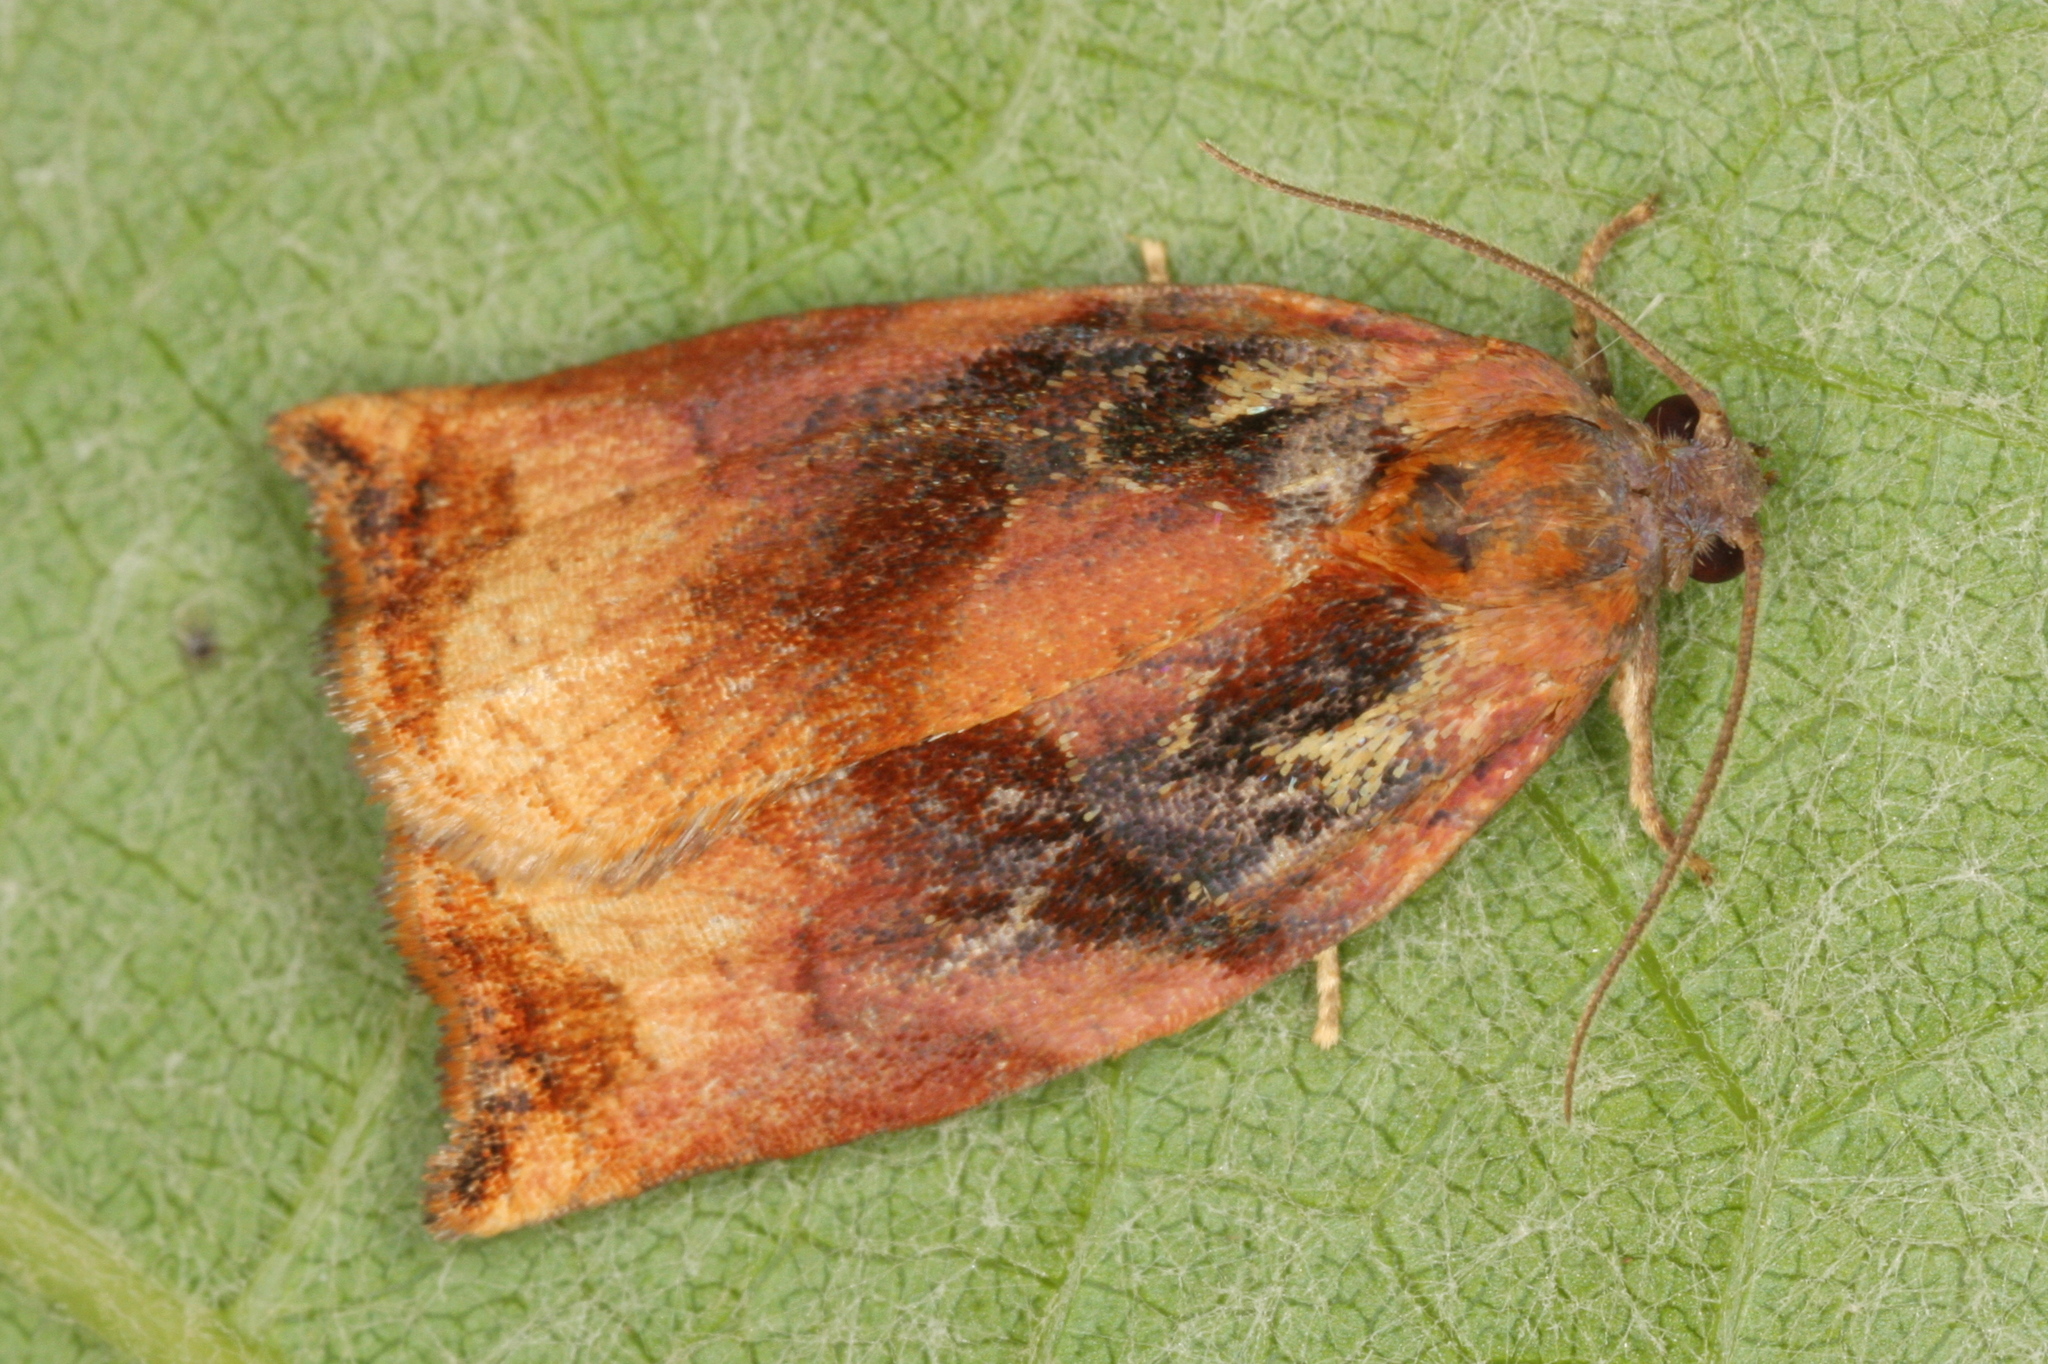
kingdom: Animalia
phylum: Arthropoda
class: Insecta
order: Lepidoptera
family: Tortricidae
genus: Archips
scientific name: Archips podana
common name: Large fruit-tree tortrix
